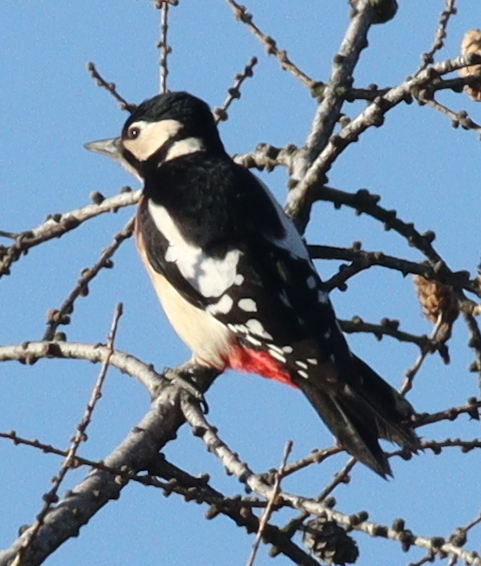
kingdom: Animalia
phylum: Chordata
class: Aves
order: Piciformes
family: Picidae
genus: Dendrocopos
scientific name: Dendrocopos major
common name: Great spotted woodpecker
